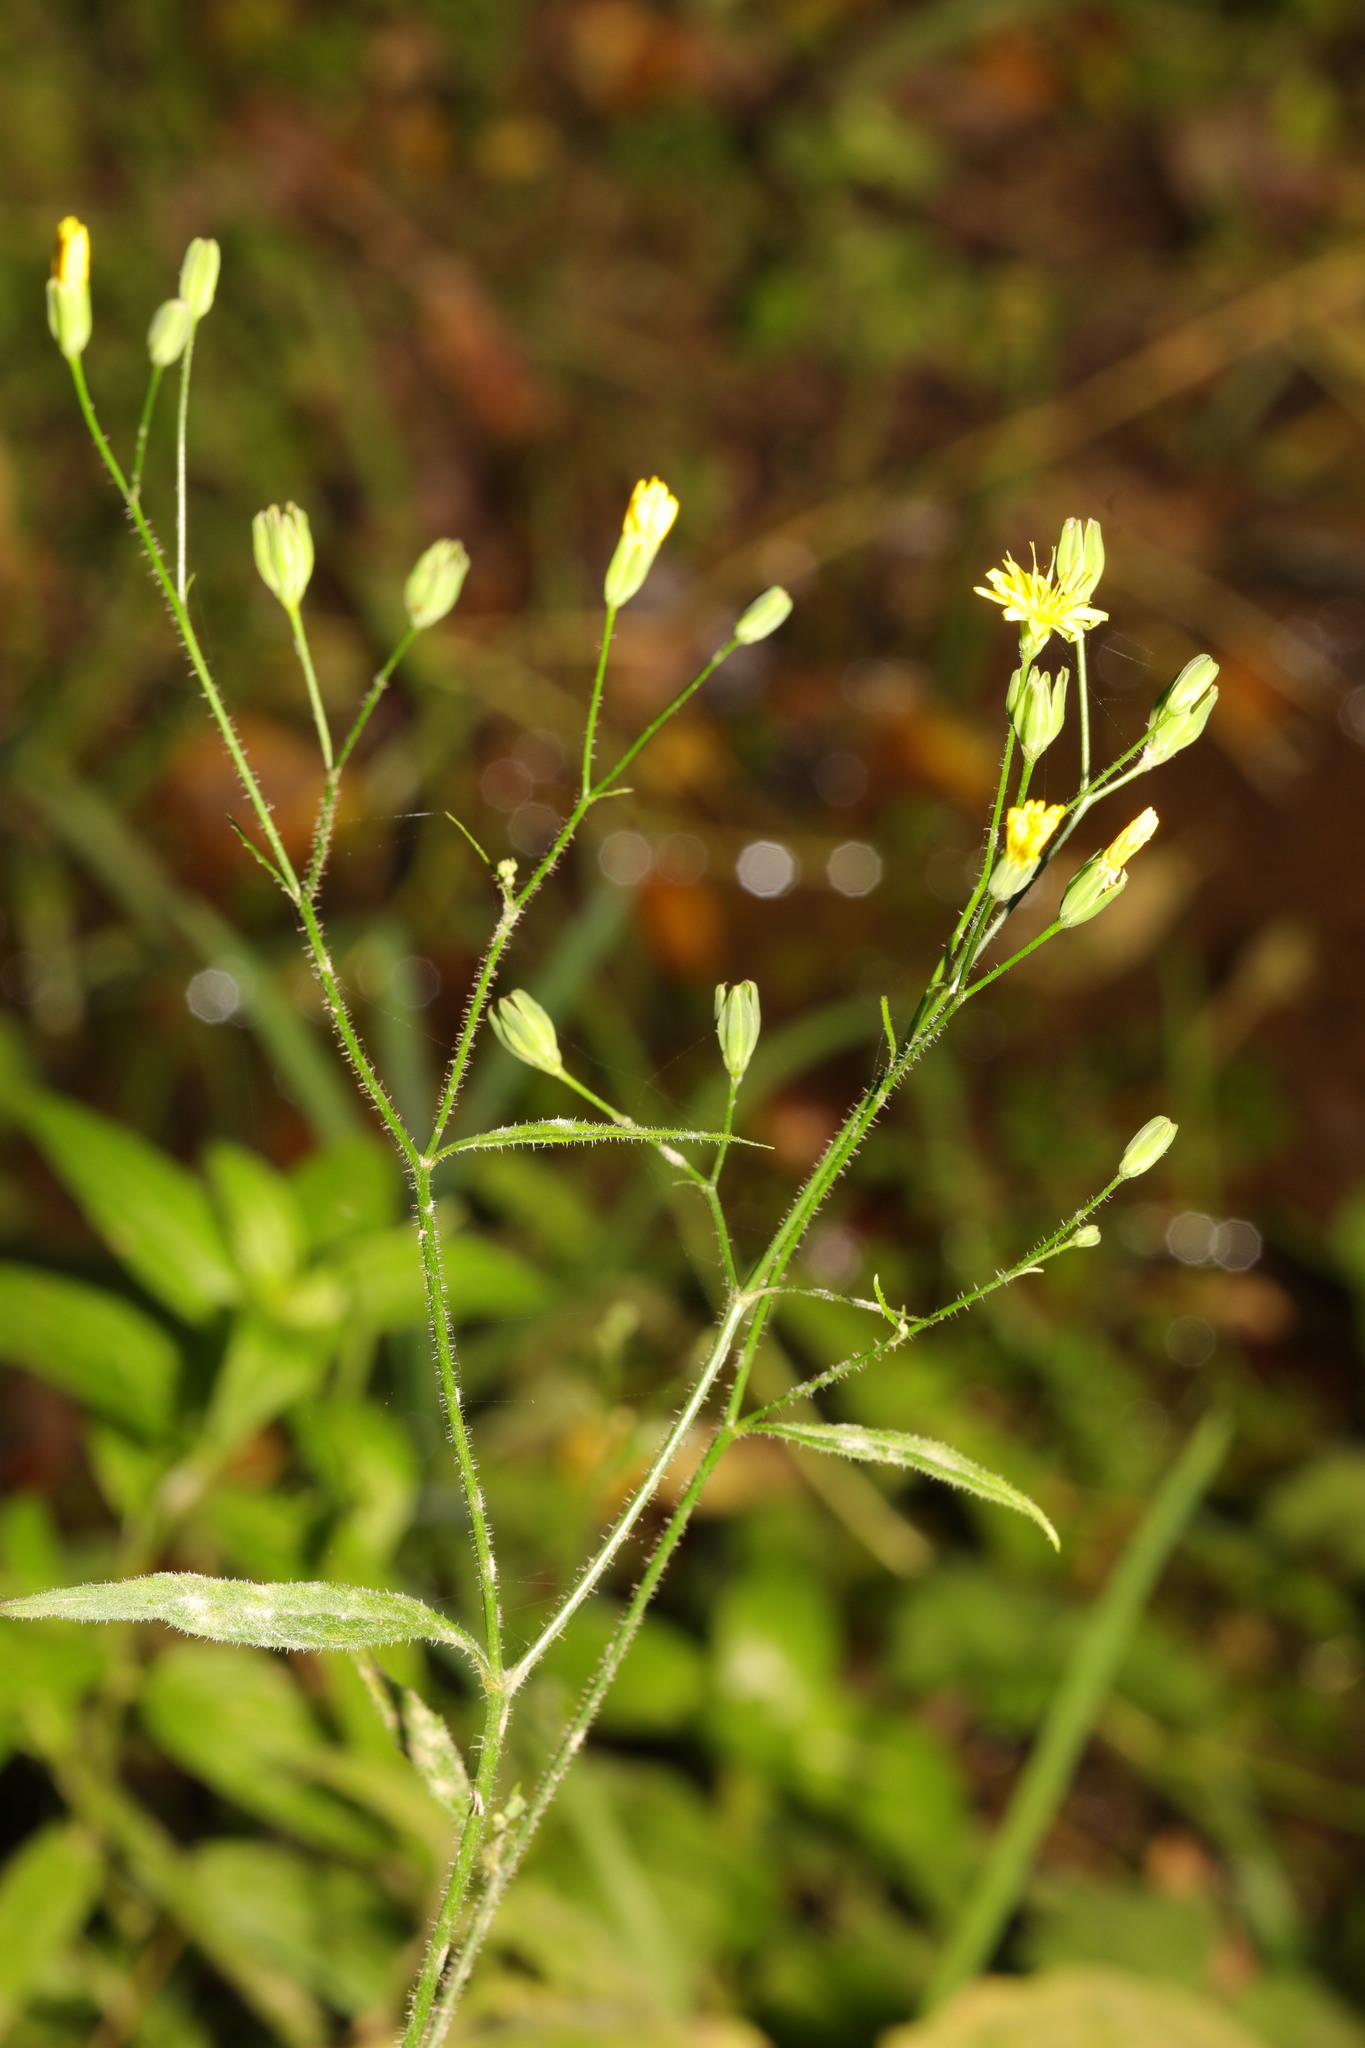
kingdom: Plantae
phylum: Tracheophyta
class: Magnoliopsida
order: Asterales
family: Asteraceae
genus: Lapsana
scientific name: Lapsana communis
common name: Nipplewort
